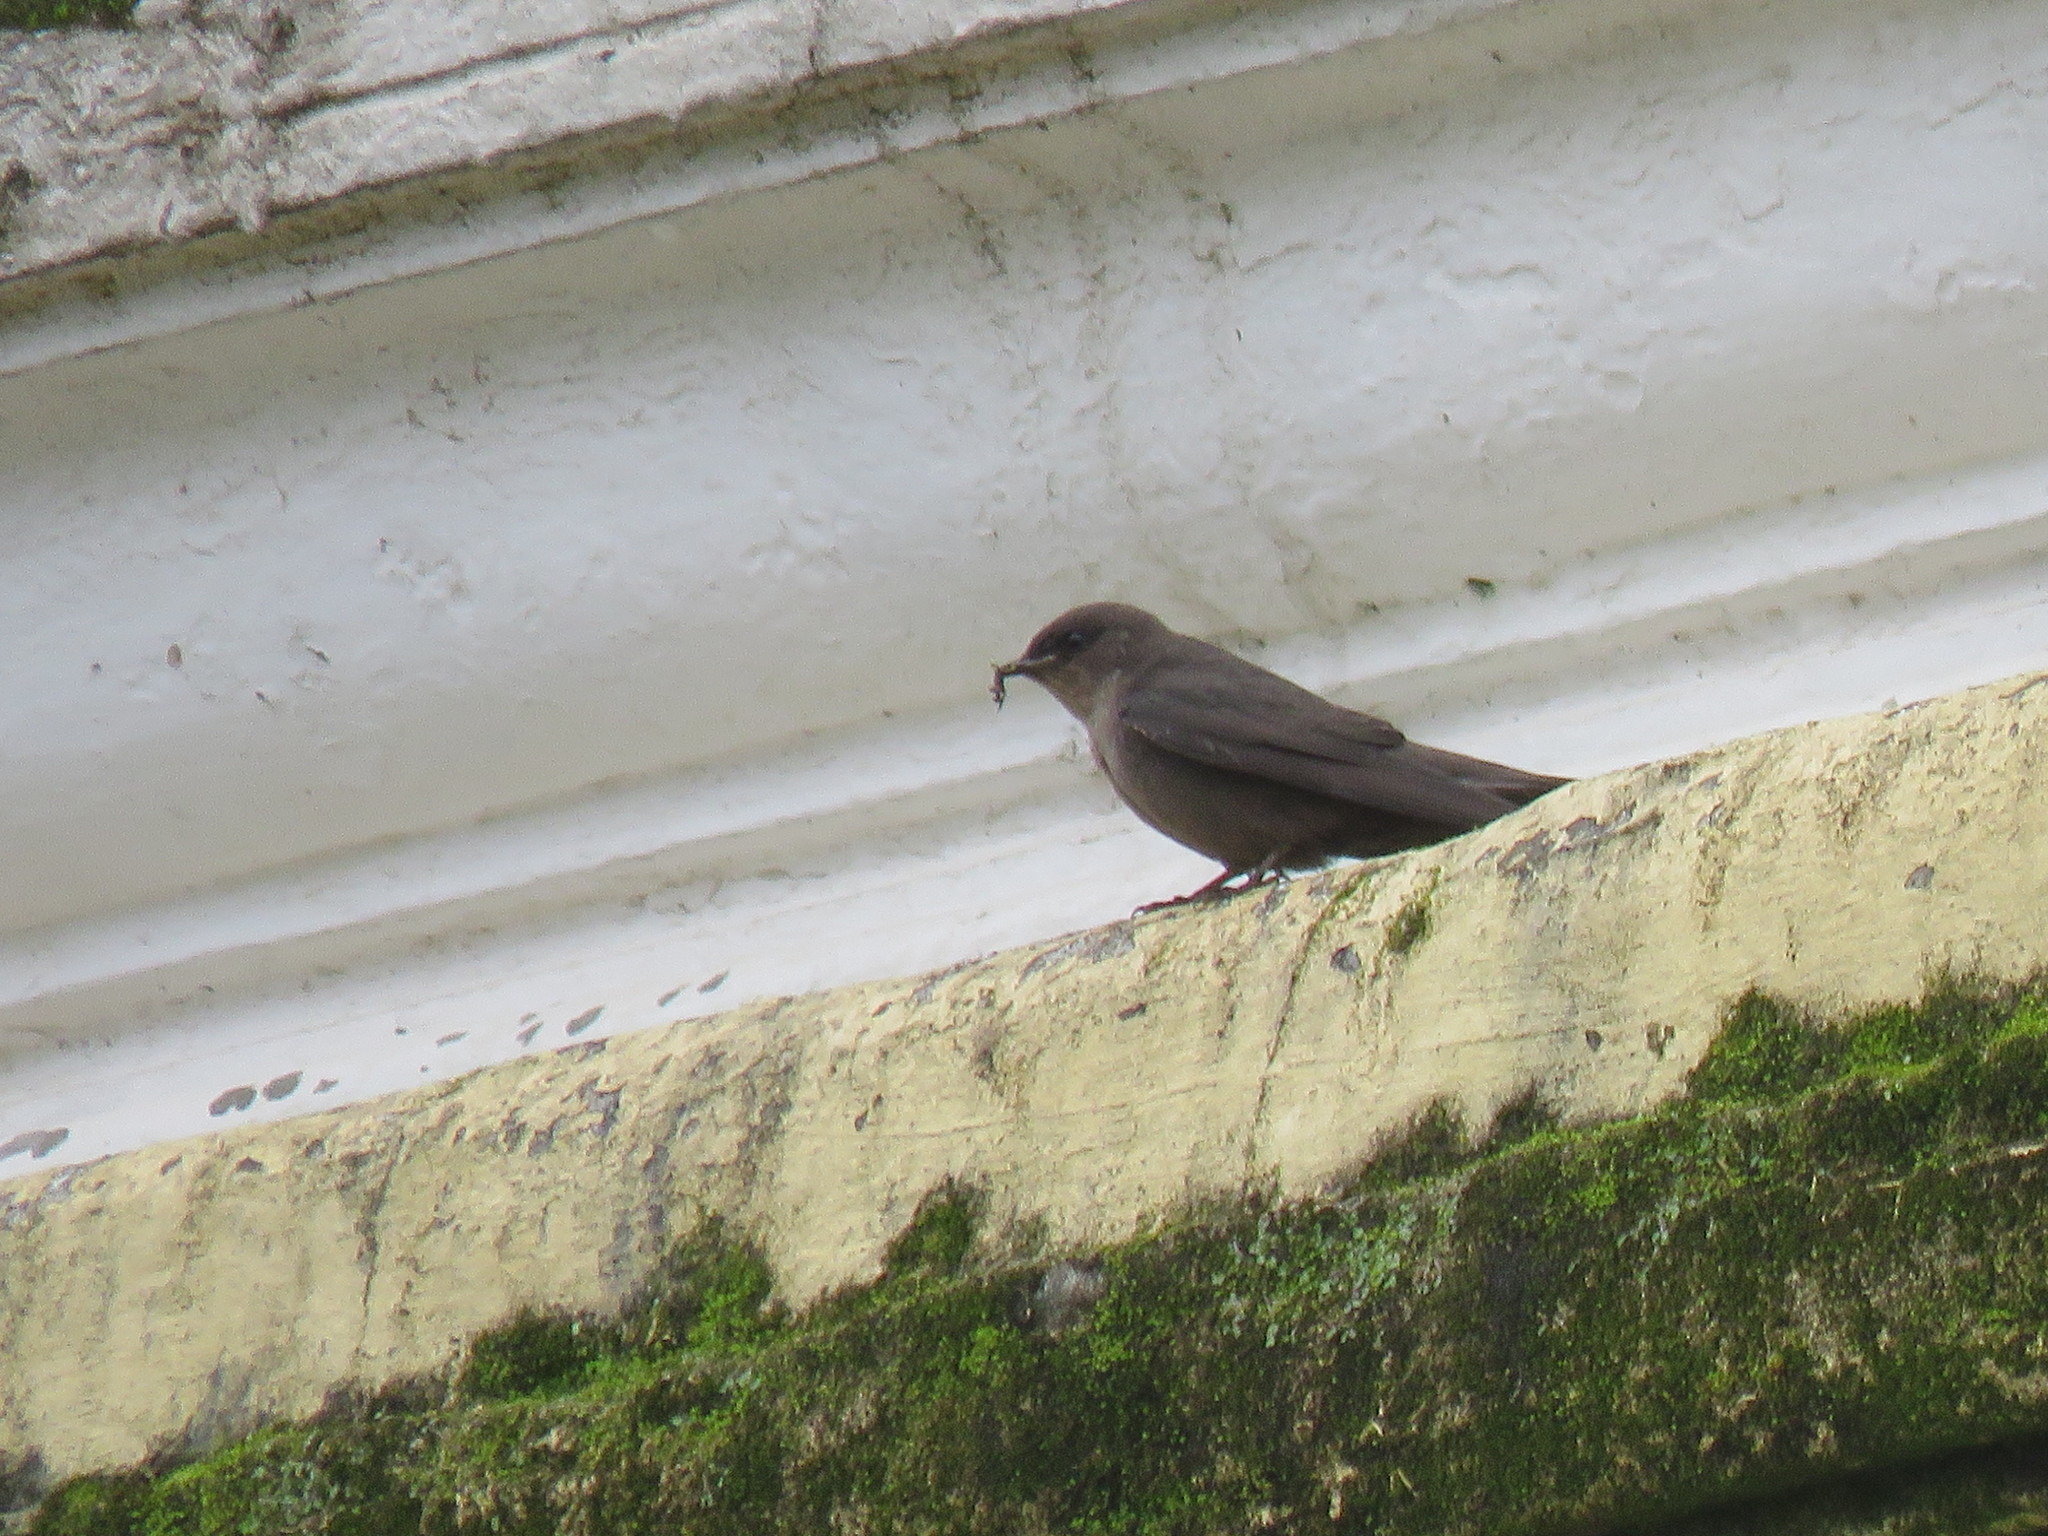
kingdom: Animalia
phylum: Chordata
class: Aves
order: Passeriformes
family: Hirundinidae
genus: Ptyonoprogne
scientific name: Ptyonoprogne concolor
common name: Dusky crag-martin
